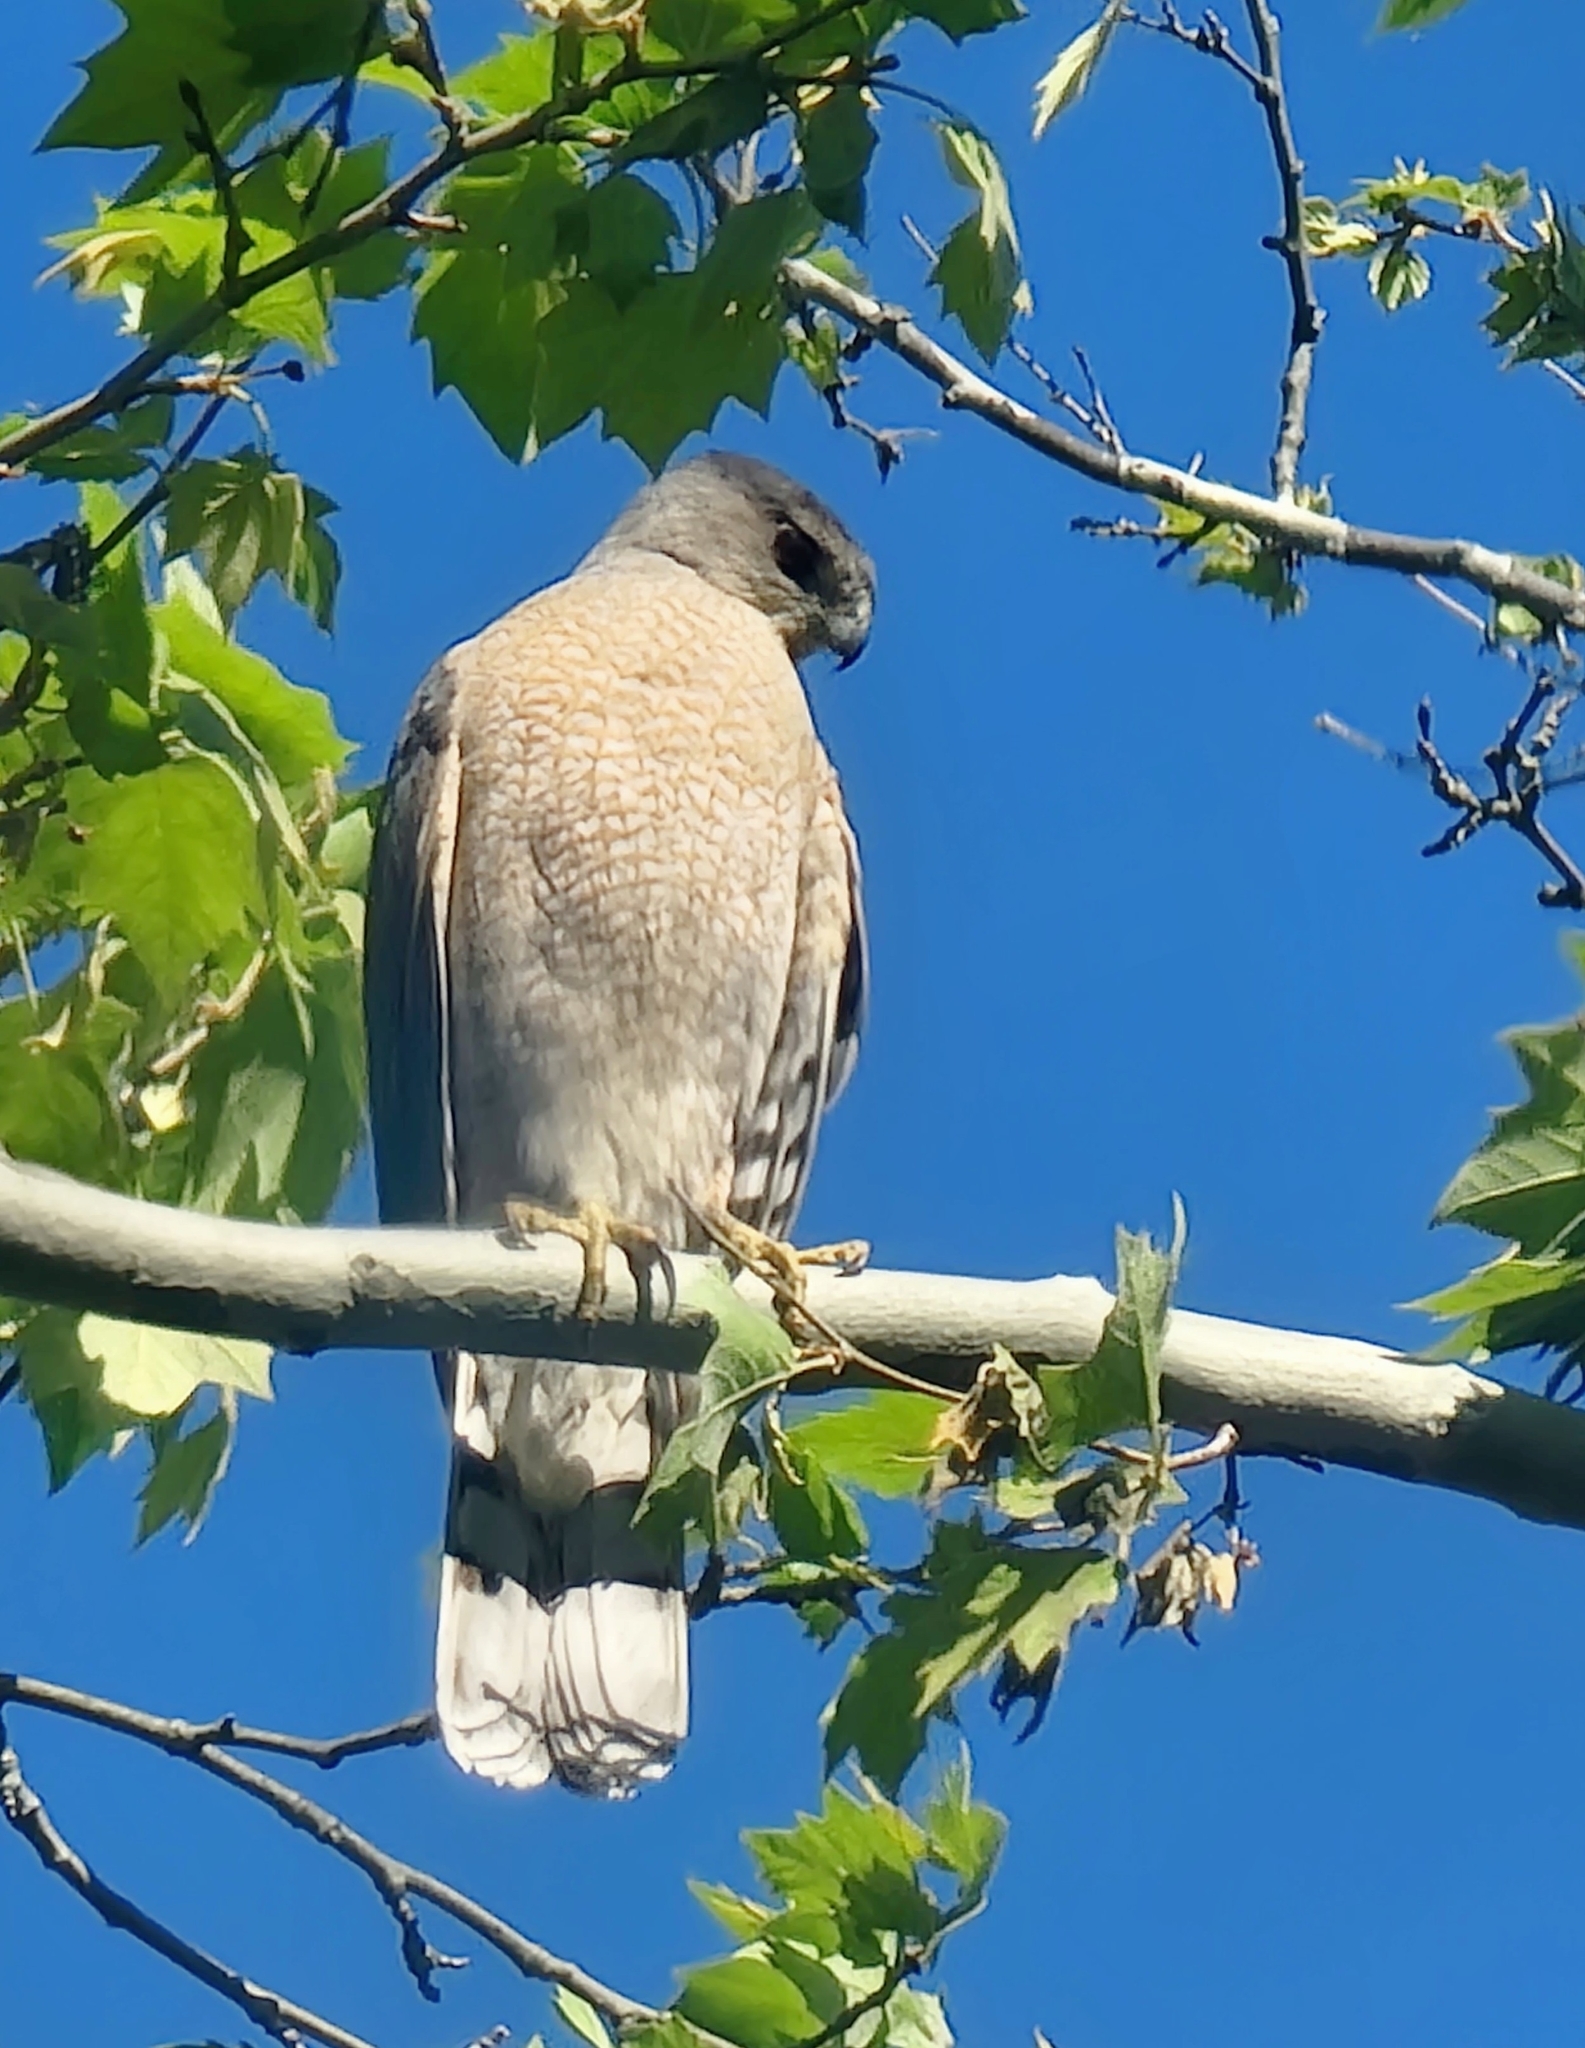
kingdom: Animalia
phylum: Chordata
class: Aves
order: Accipitriformes
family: Accipitridae
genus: Accipiter
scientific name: Accipiter cooperii
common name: Cooper's hawk
